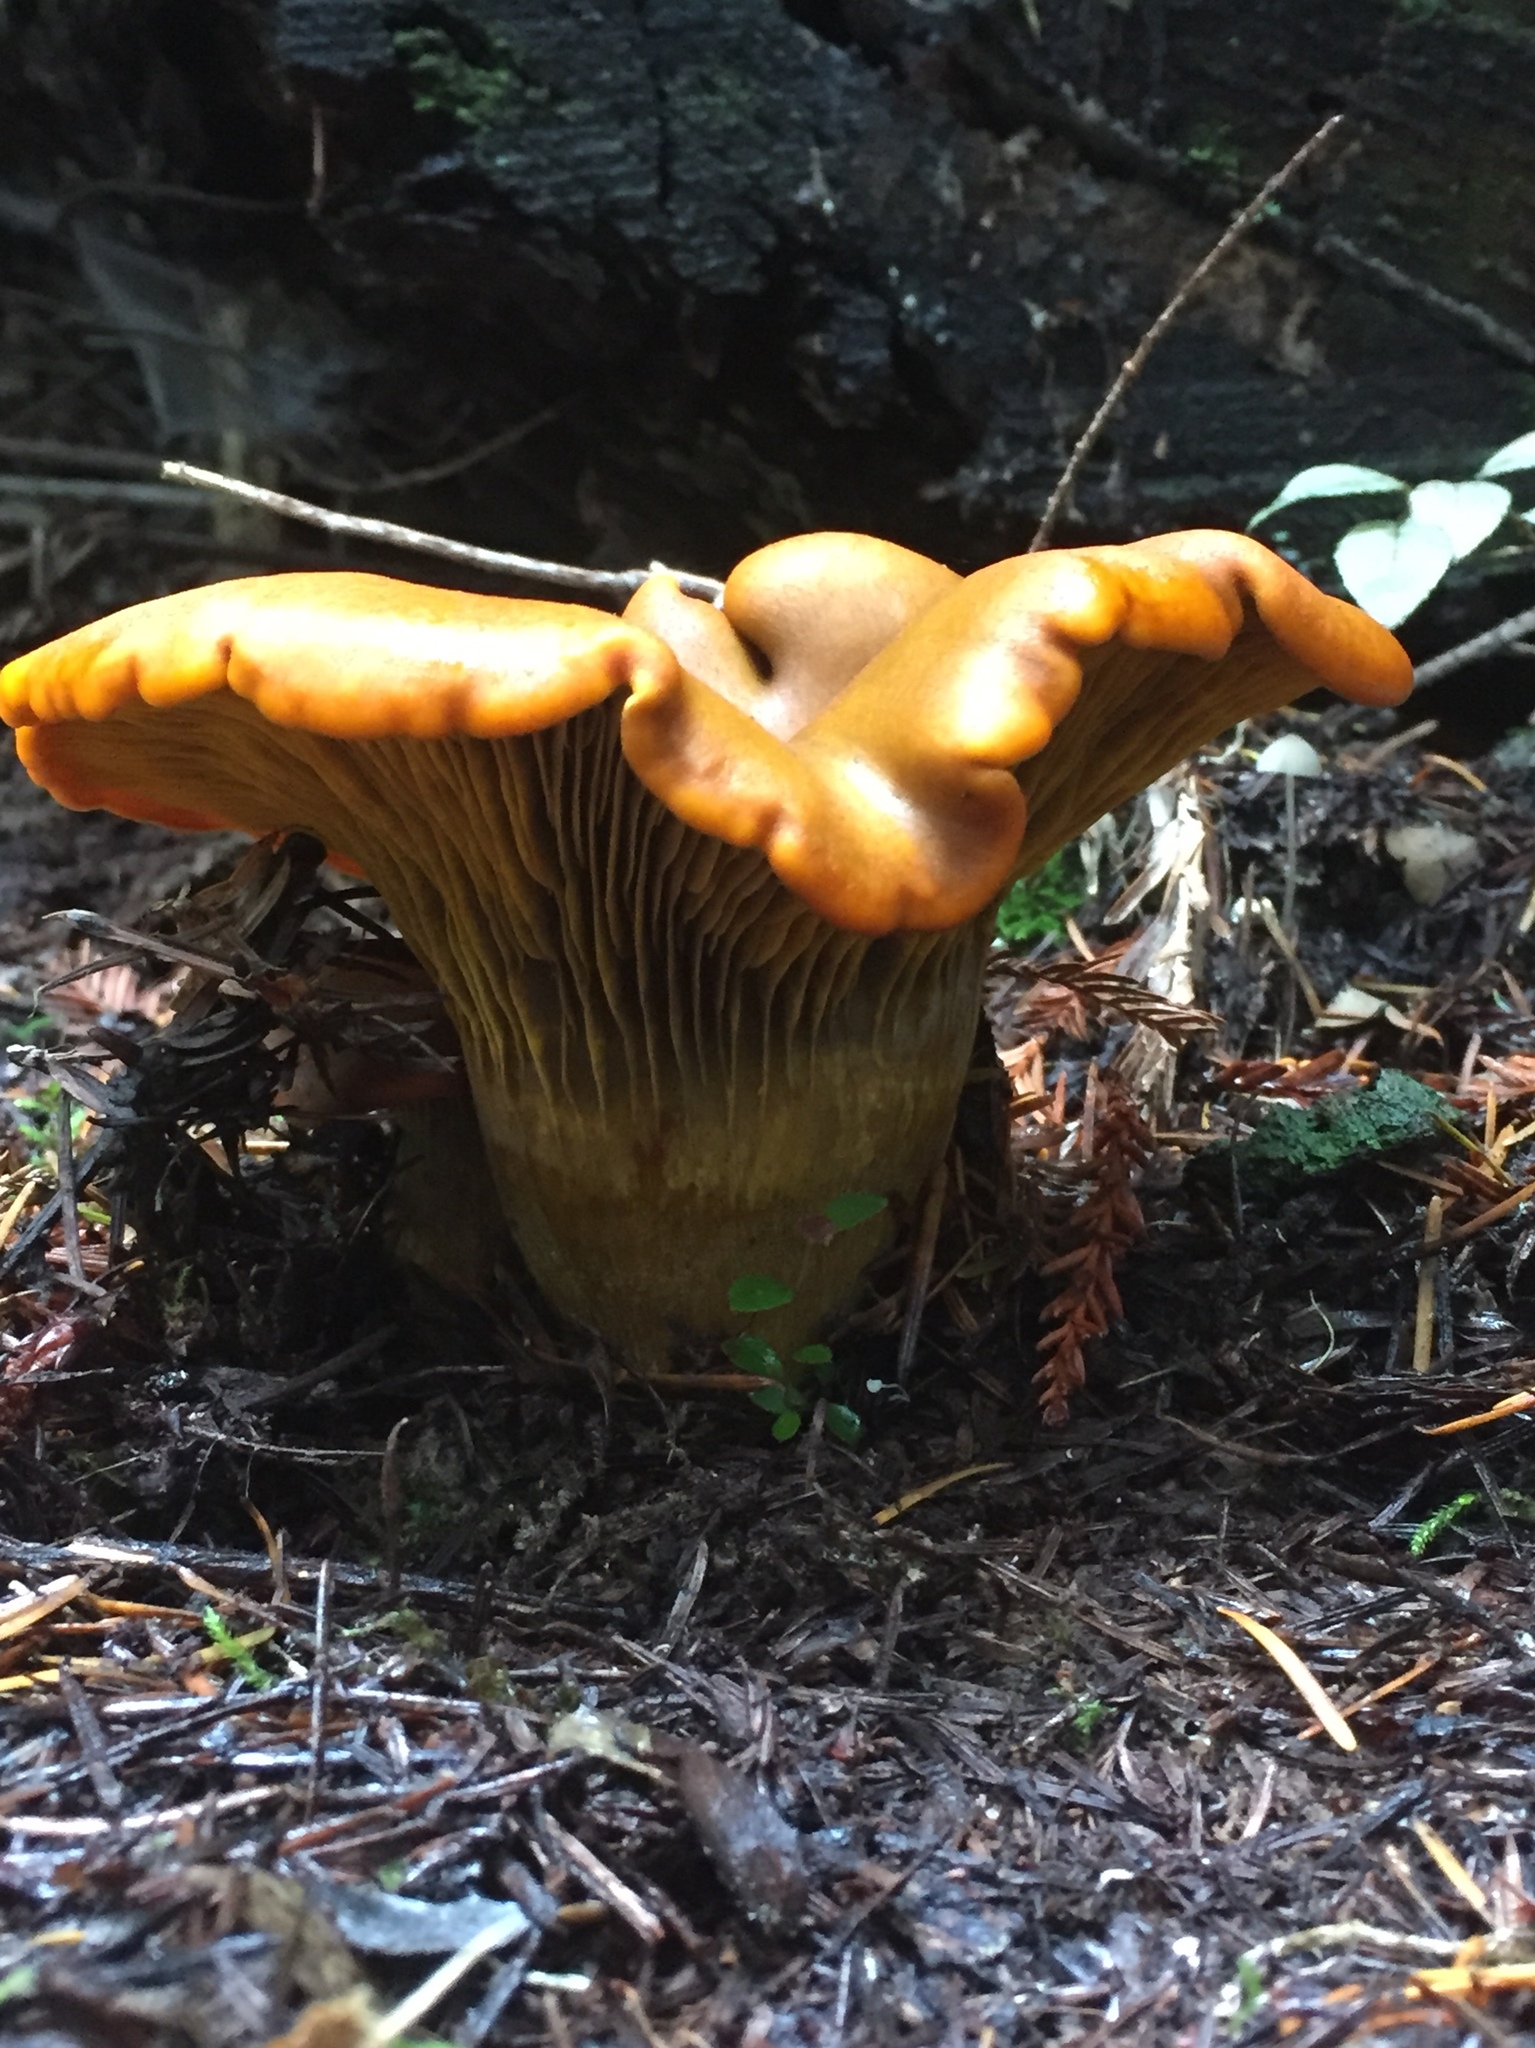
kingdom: Fungi
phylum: Basidiomycota
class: Agaricomycetes
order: Agaricales
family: Omphalotaceae
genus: Omphalotus
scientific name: Omphalotus olivascens
